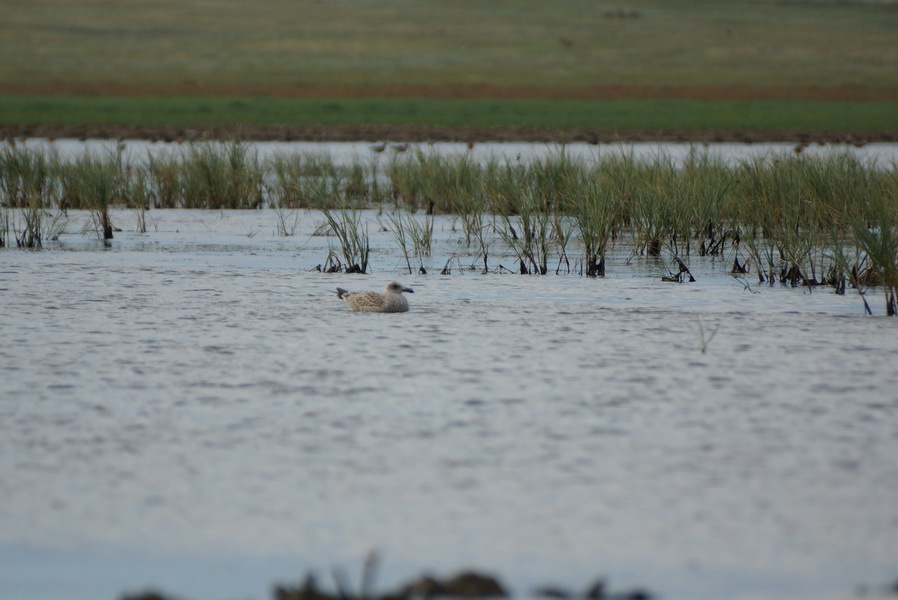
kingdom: Animalia
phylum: Chordata
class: Aves
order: Charadriiformes
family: Laridae
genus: Larus
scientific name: Larus cachinnans
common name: Caspian gull
